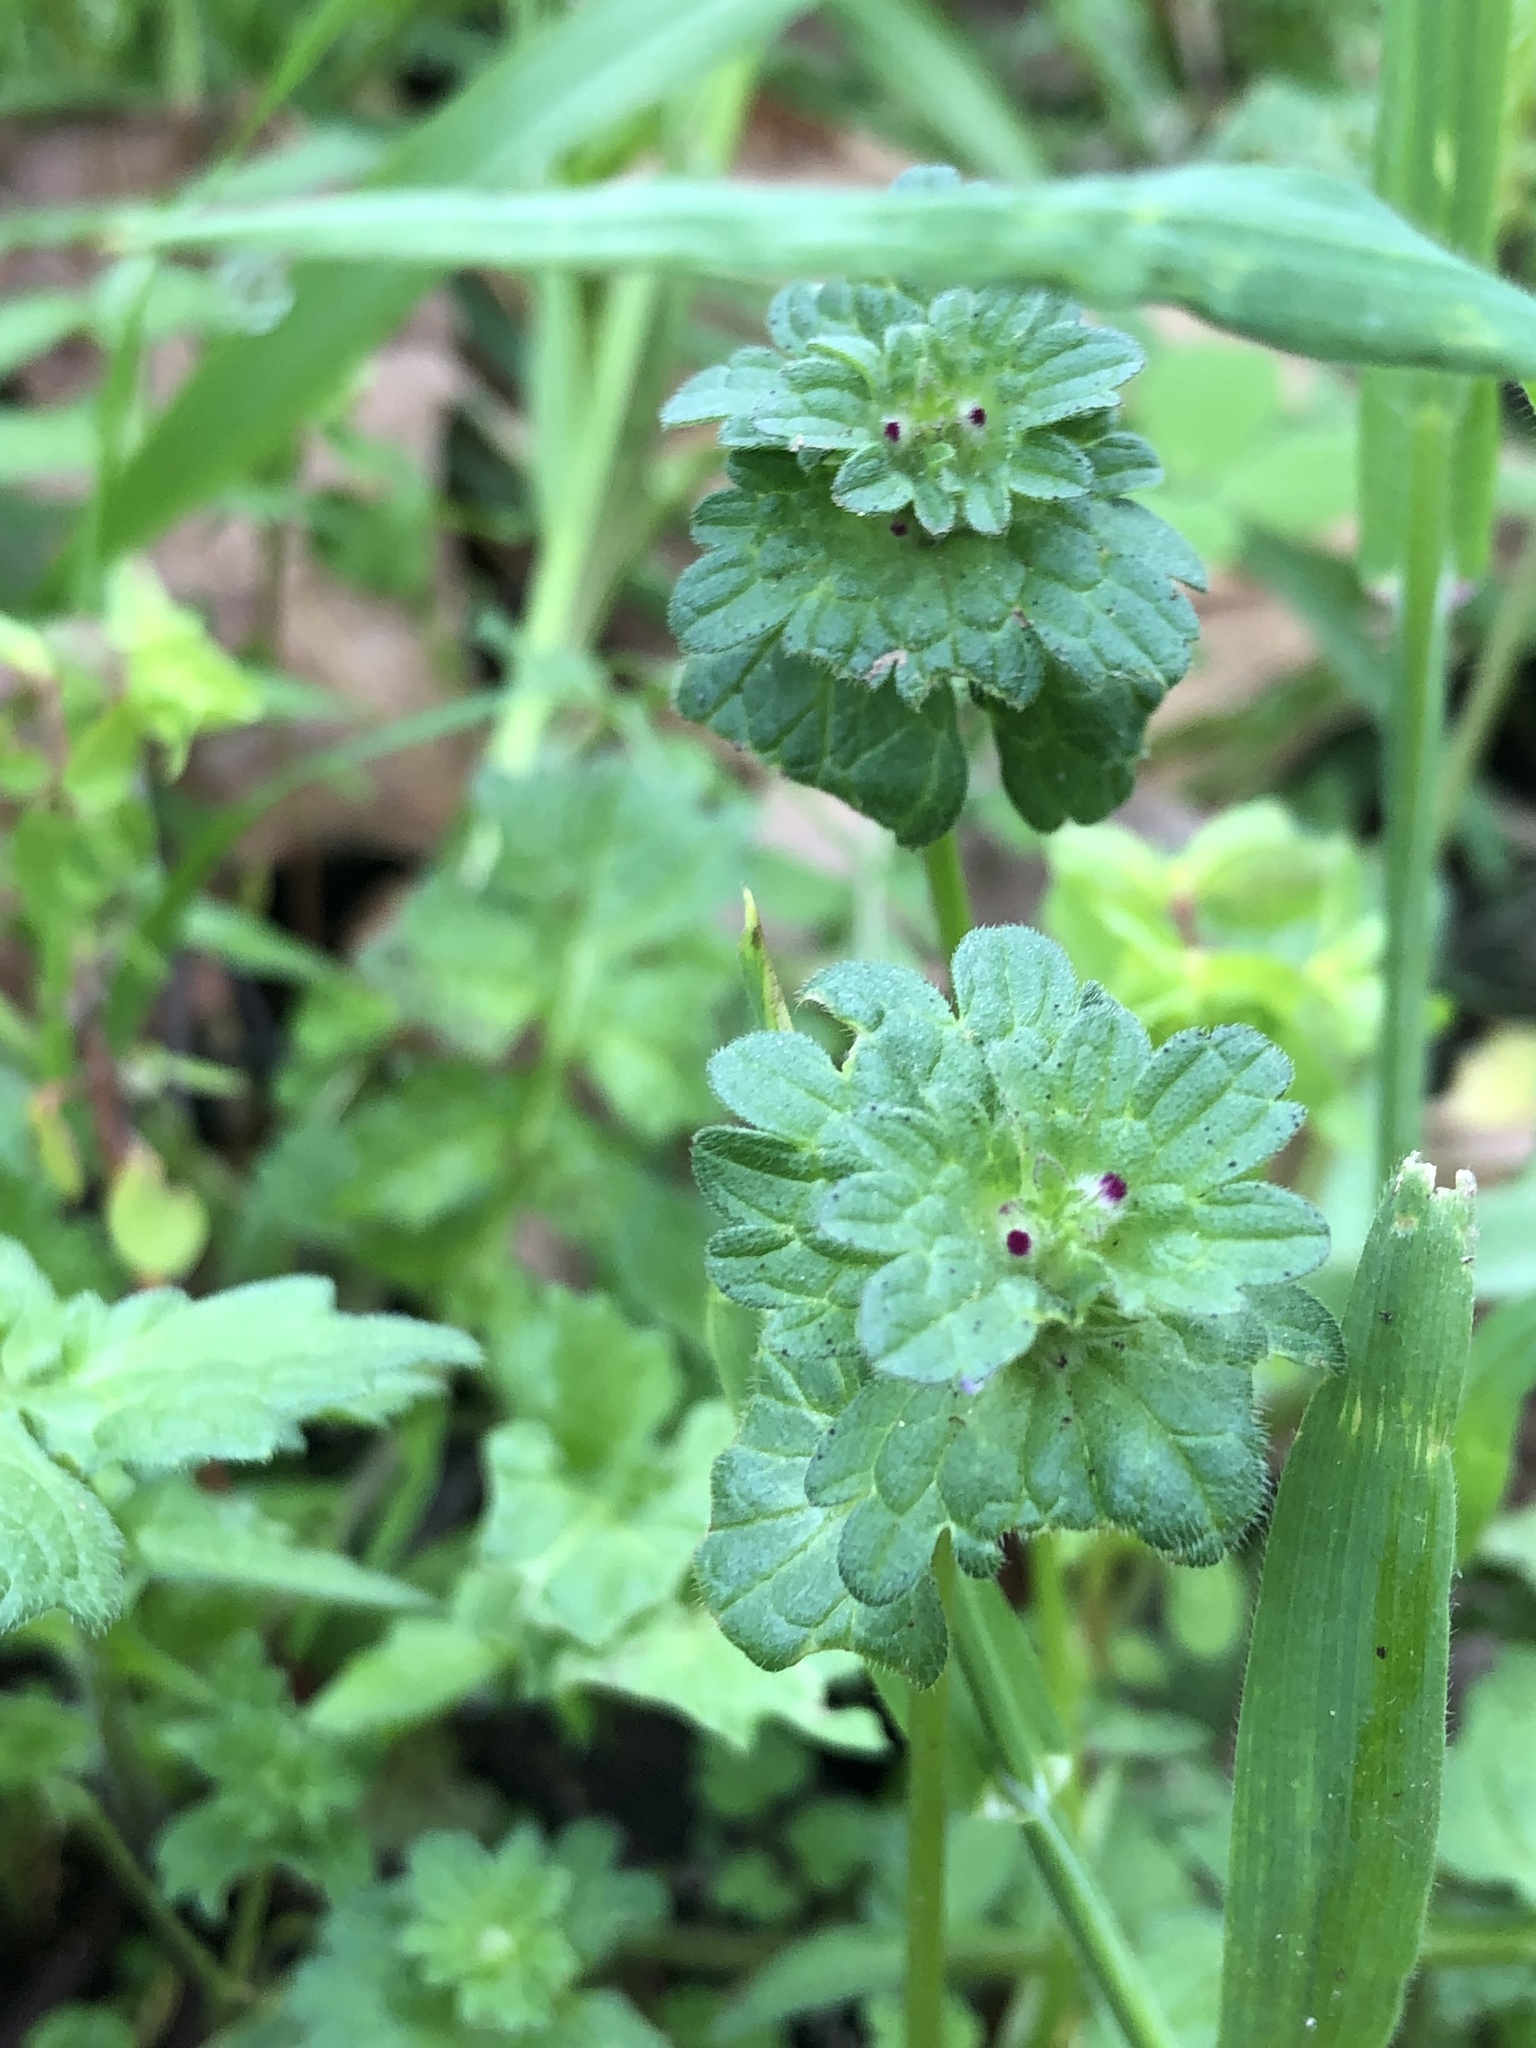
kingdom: Plantae
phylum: Tracheophyta
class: Magnoliopsida
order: Lamiales
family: Lamiaceae
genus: Lamium
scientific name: Lamium amplexicaule
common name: Henbit dead-nettle
